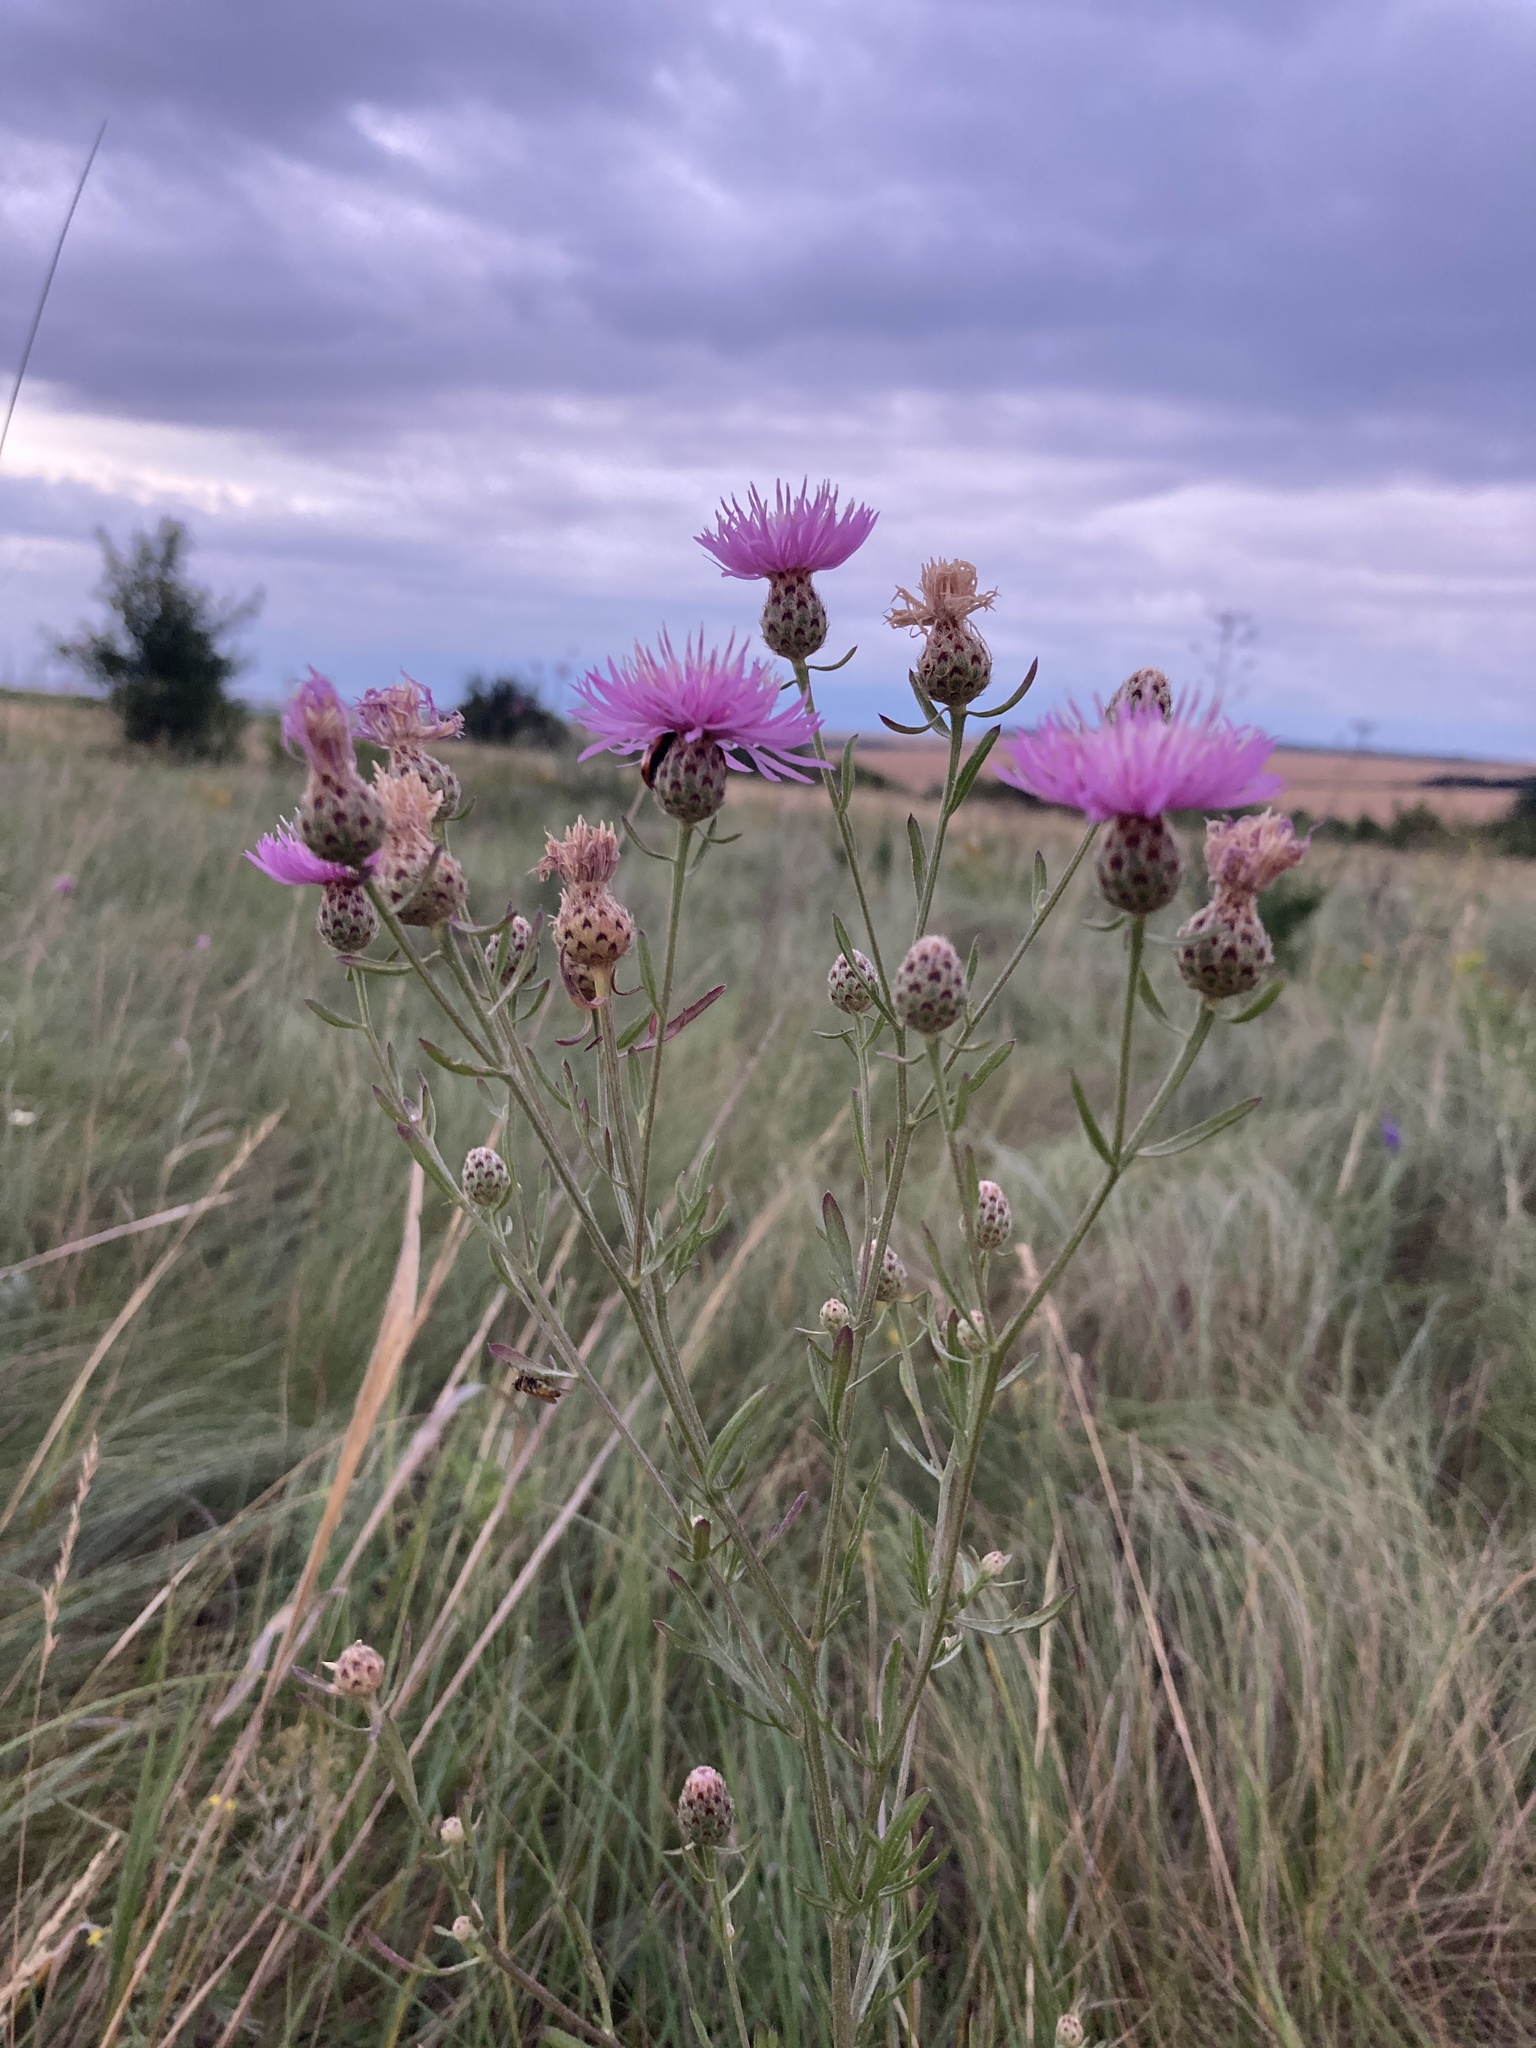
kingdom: Plantae
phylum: Tracheophyta
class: Magnoliopsida
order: Asterales
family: Asteraceae
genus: Centaurea
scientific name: Centaurea stoebe
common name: Spotted knapweed
